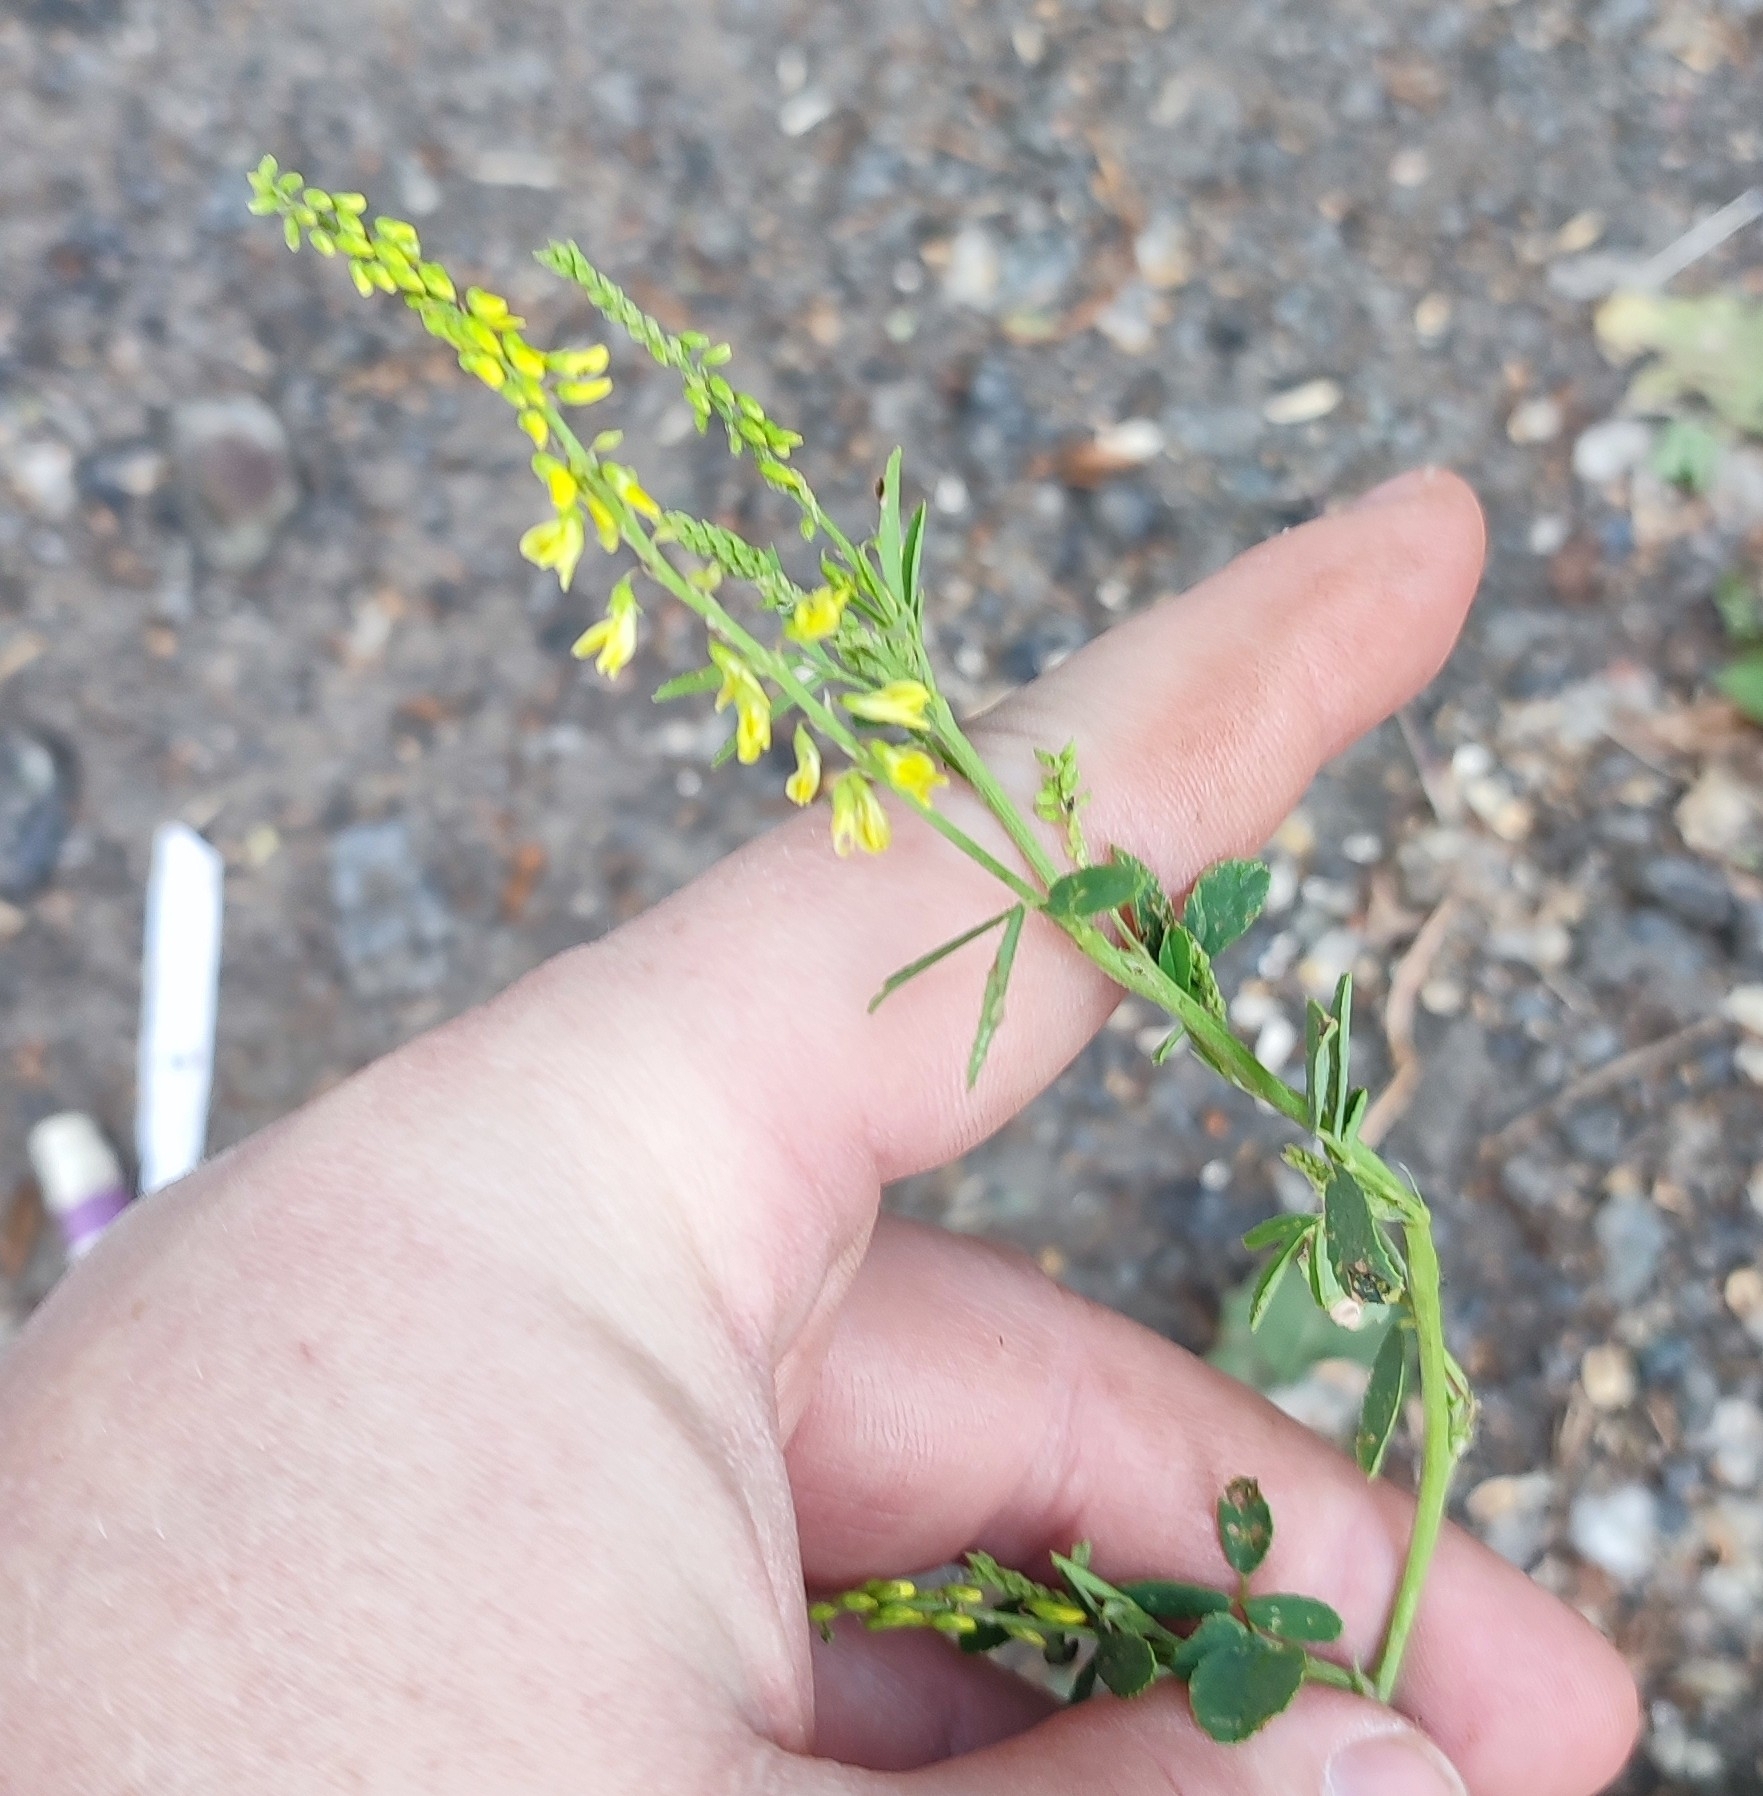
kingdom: Plantae
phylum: Tracheophyta
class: Magnoliopsida
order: Fabales
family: Fabaceae
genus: Melilotus
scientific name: Melilotus officinalis
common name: Sweetclover
